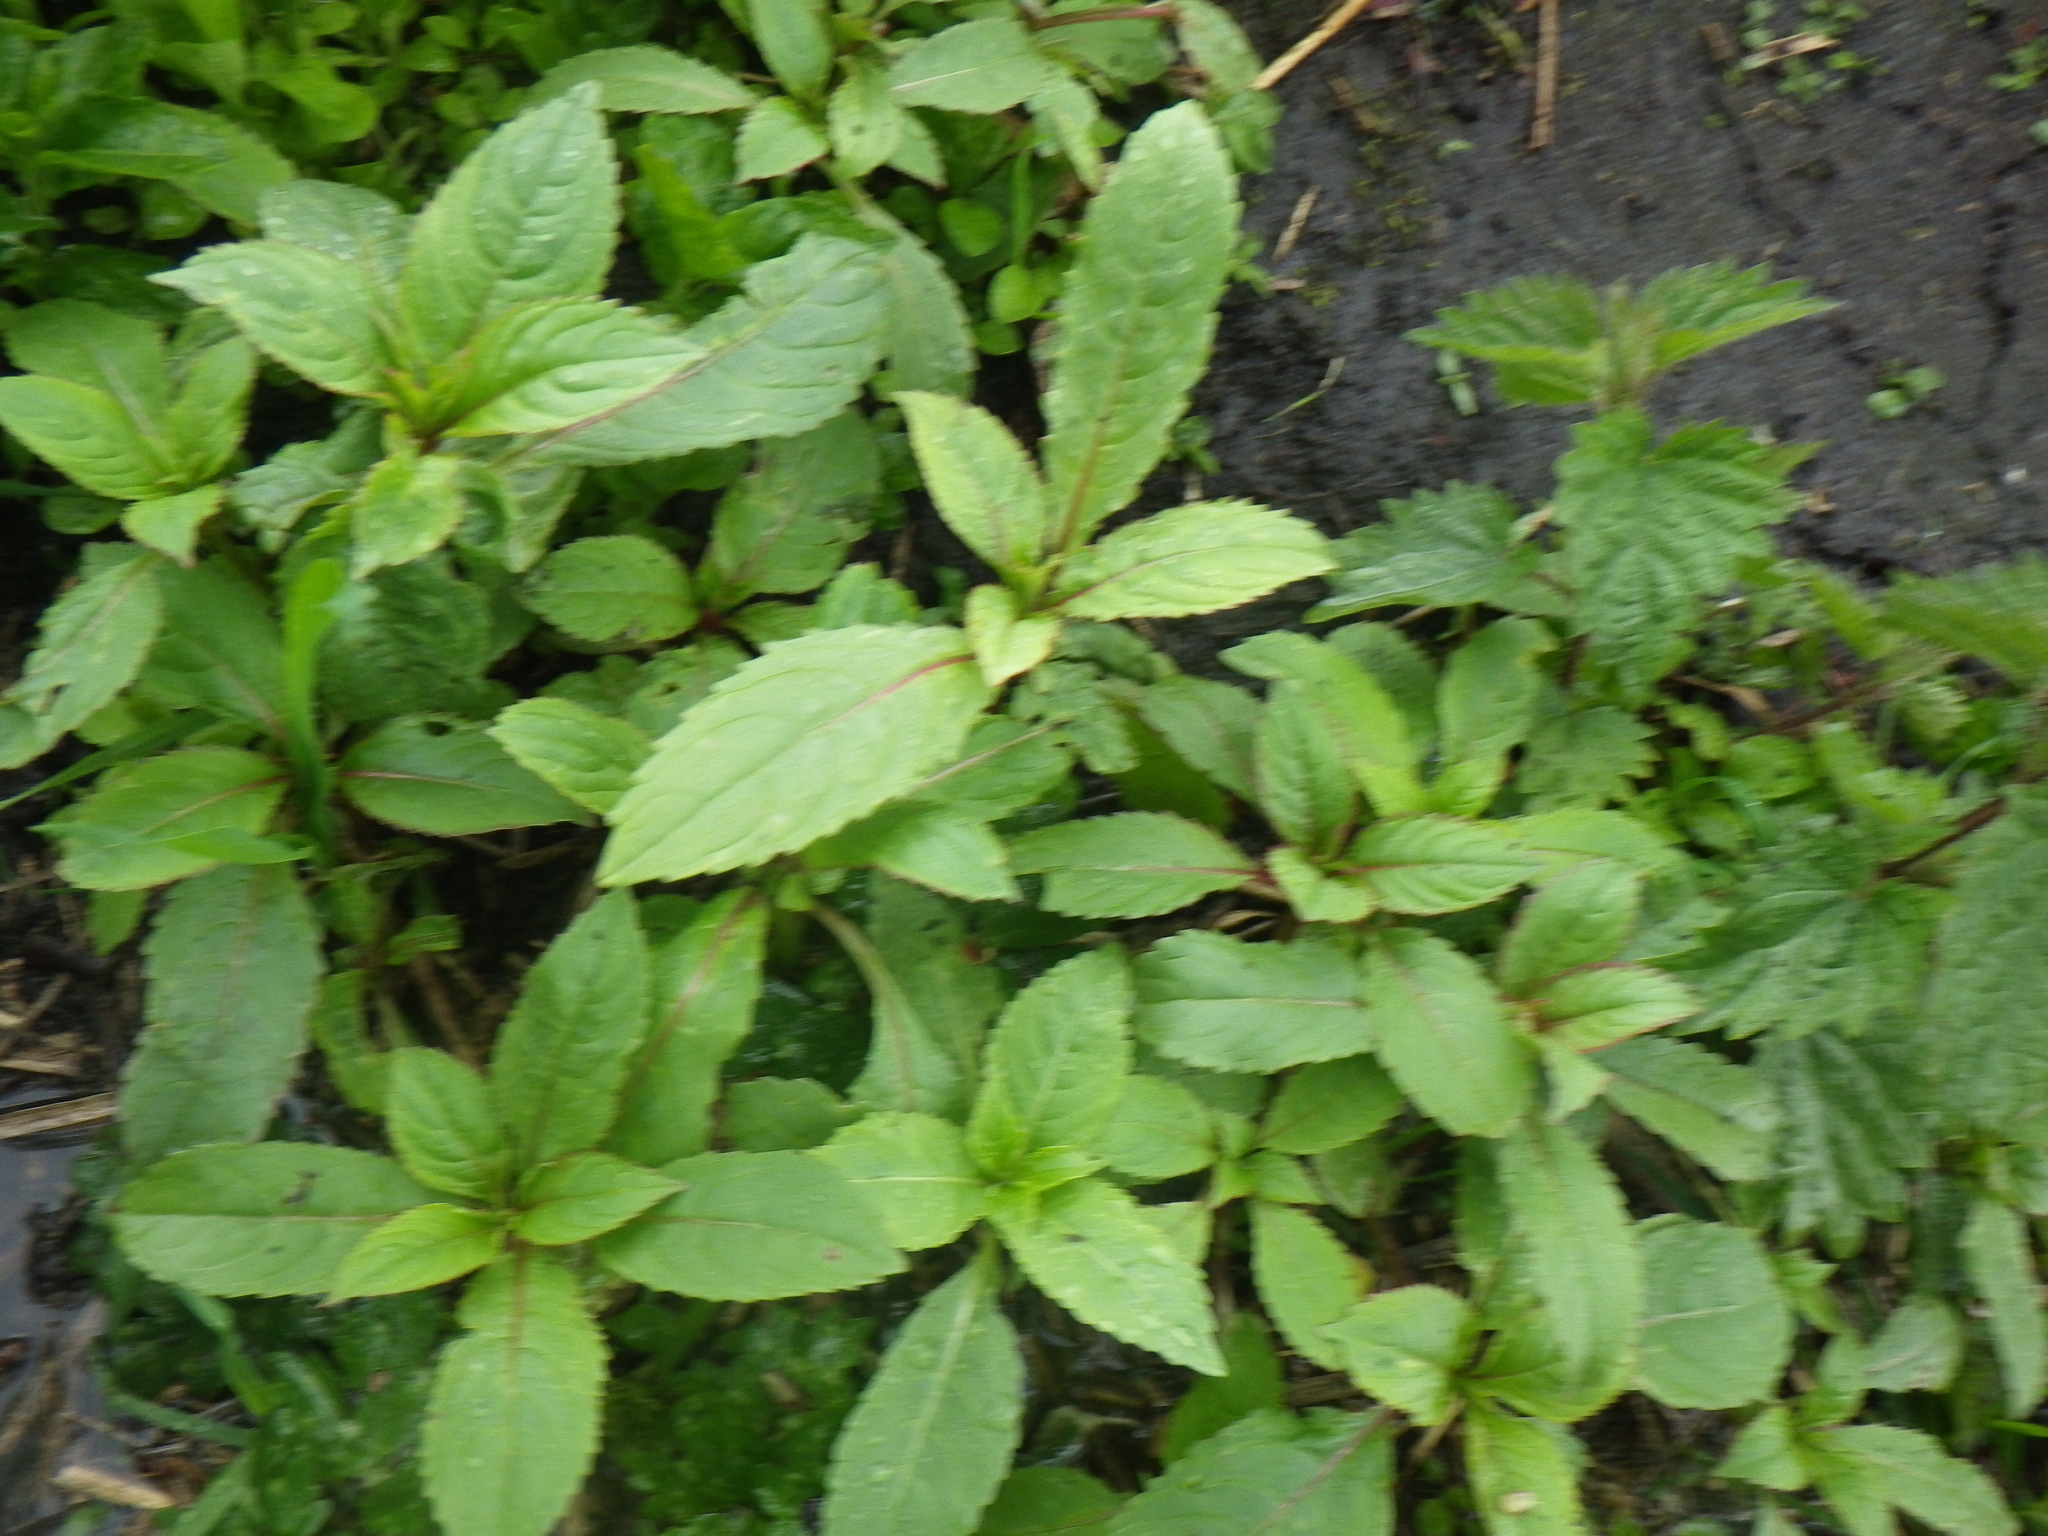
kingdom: Plantae
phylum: Tracheophyta
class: Magnoliopsida
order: Ericales
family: Balsaminaceae
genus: Impatiens
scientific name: Impatiens glandulifera
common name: Himalayan balsam
